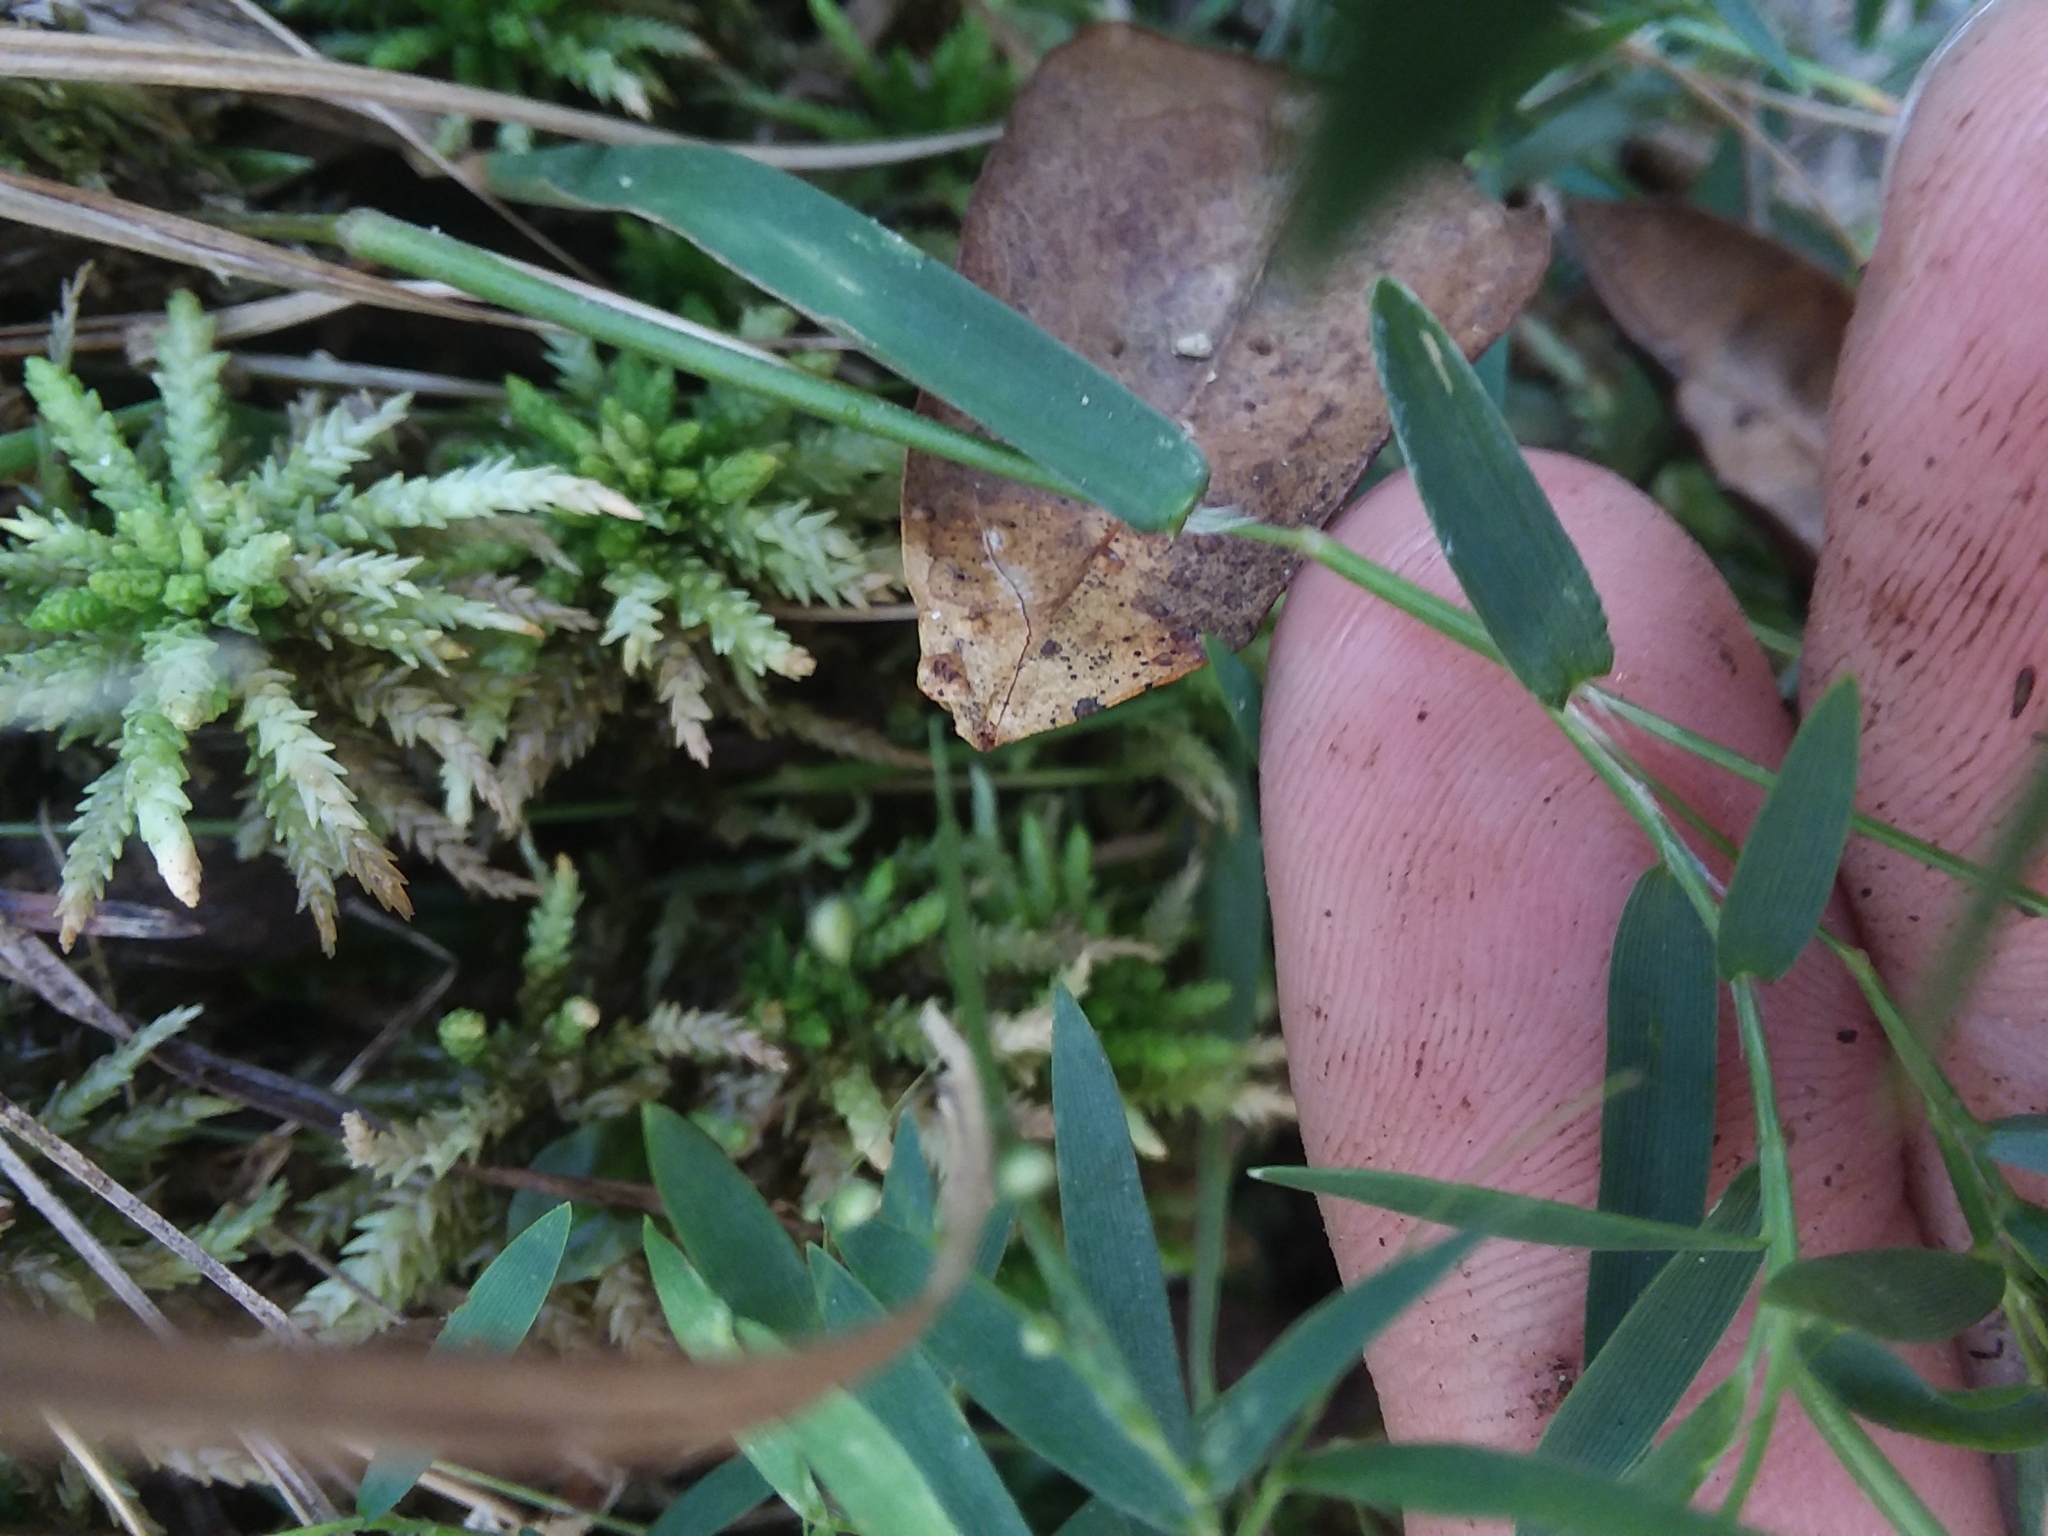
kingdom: Plantae
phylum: Tracheophyta
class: Liliopsida
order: Poales
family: Poaceae
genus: Dichanthelium
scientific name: Dichanthelium longiligulatum
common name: Long-ligule panicgrass
